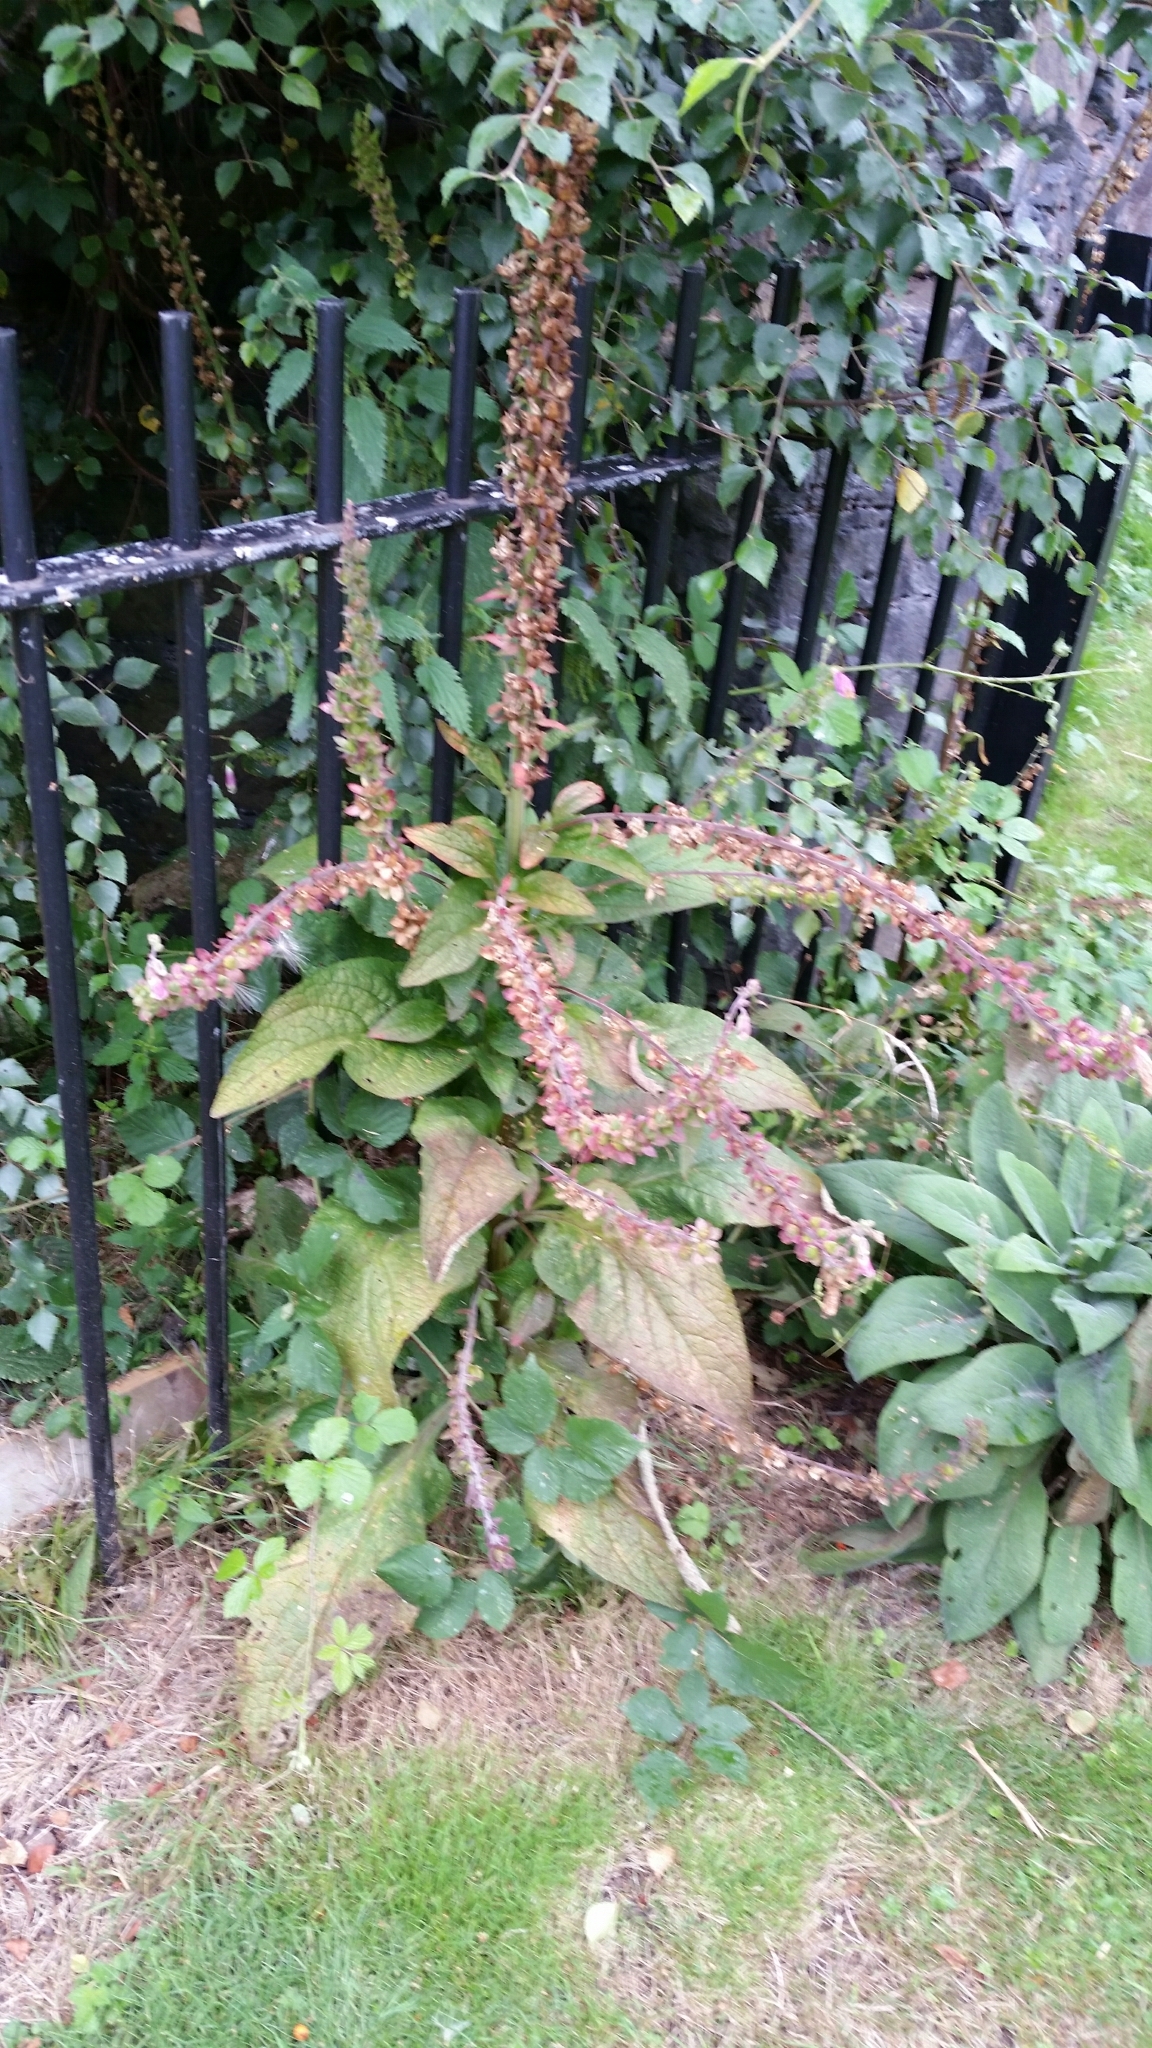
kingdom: Plantae
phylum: Tracheophyta
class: Magnoliopsida
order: Lamiales
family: Plantaginaceae
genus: Digitalis
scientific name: Digitalis purpurea
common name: Foxglove
